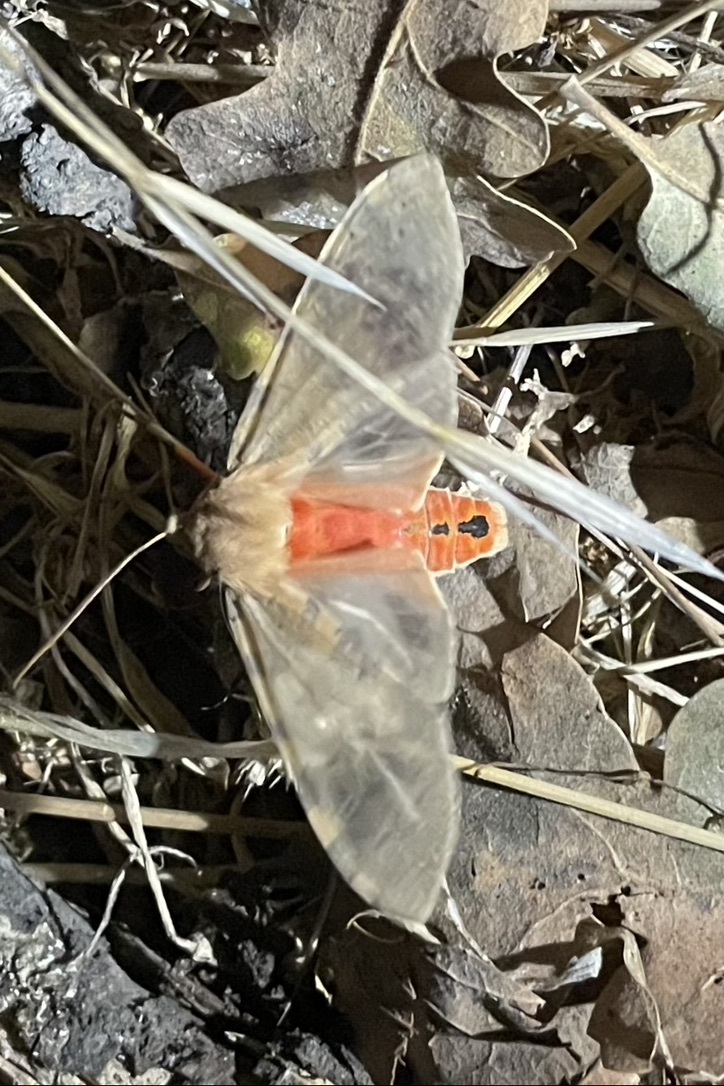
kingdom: Animalia
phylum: Arthropoda
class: Insecta
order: Lepidoptera
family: Erebidae
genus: Hemihyalea
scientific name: Hemihyalea edwardsii
